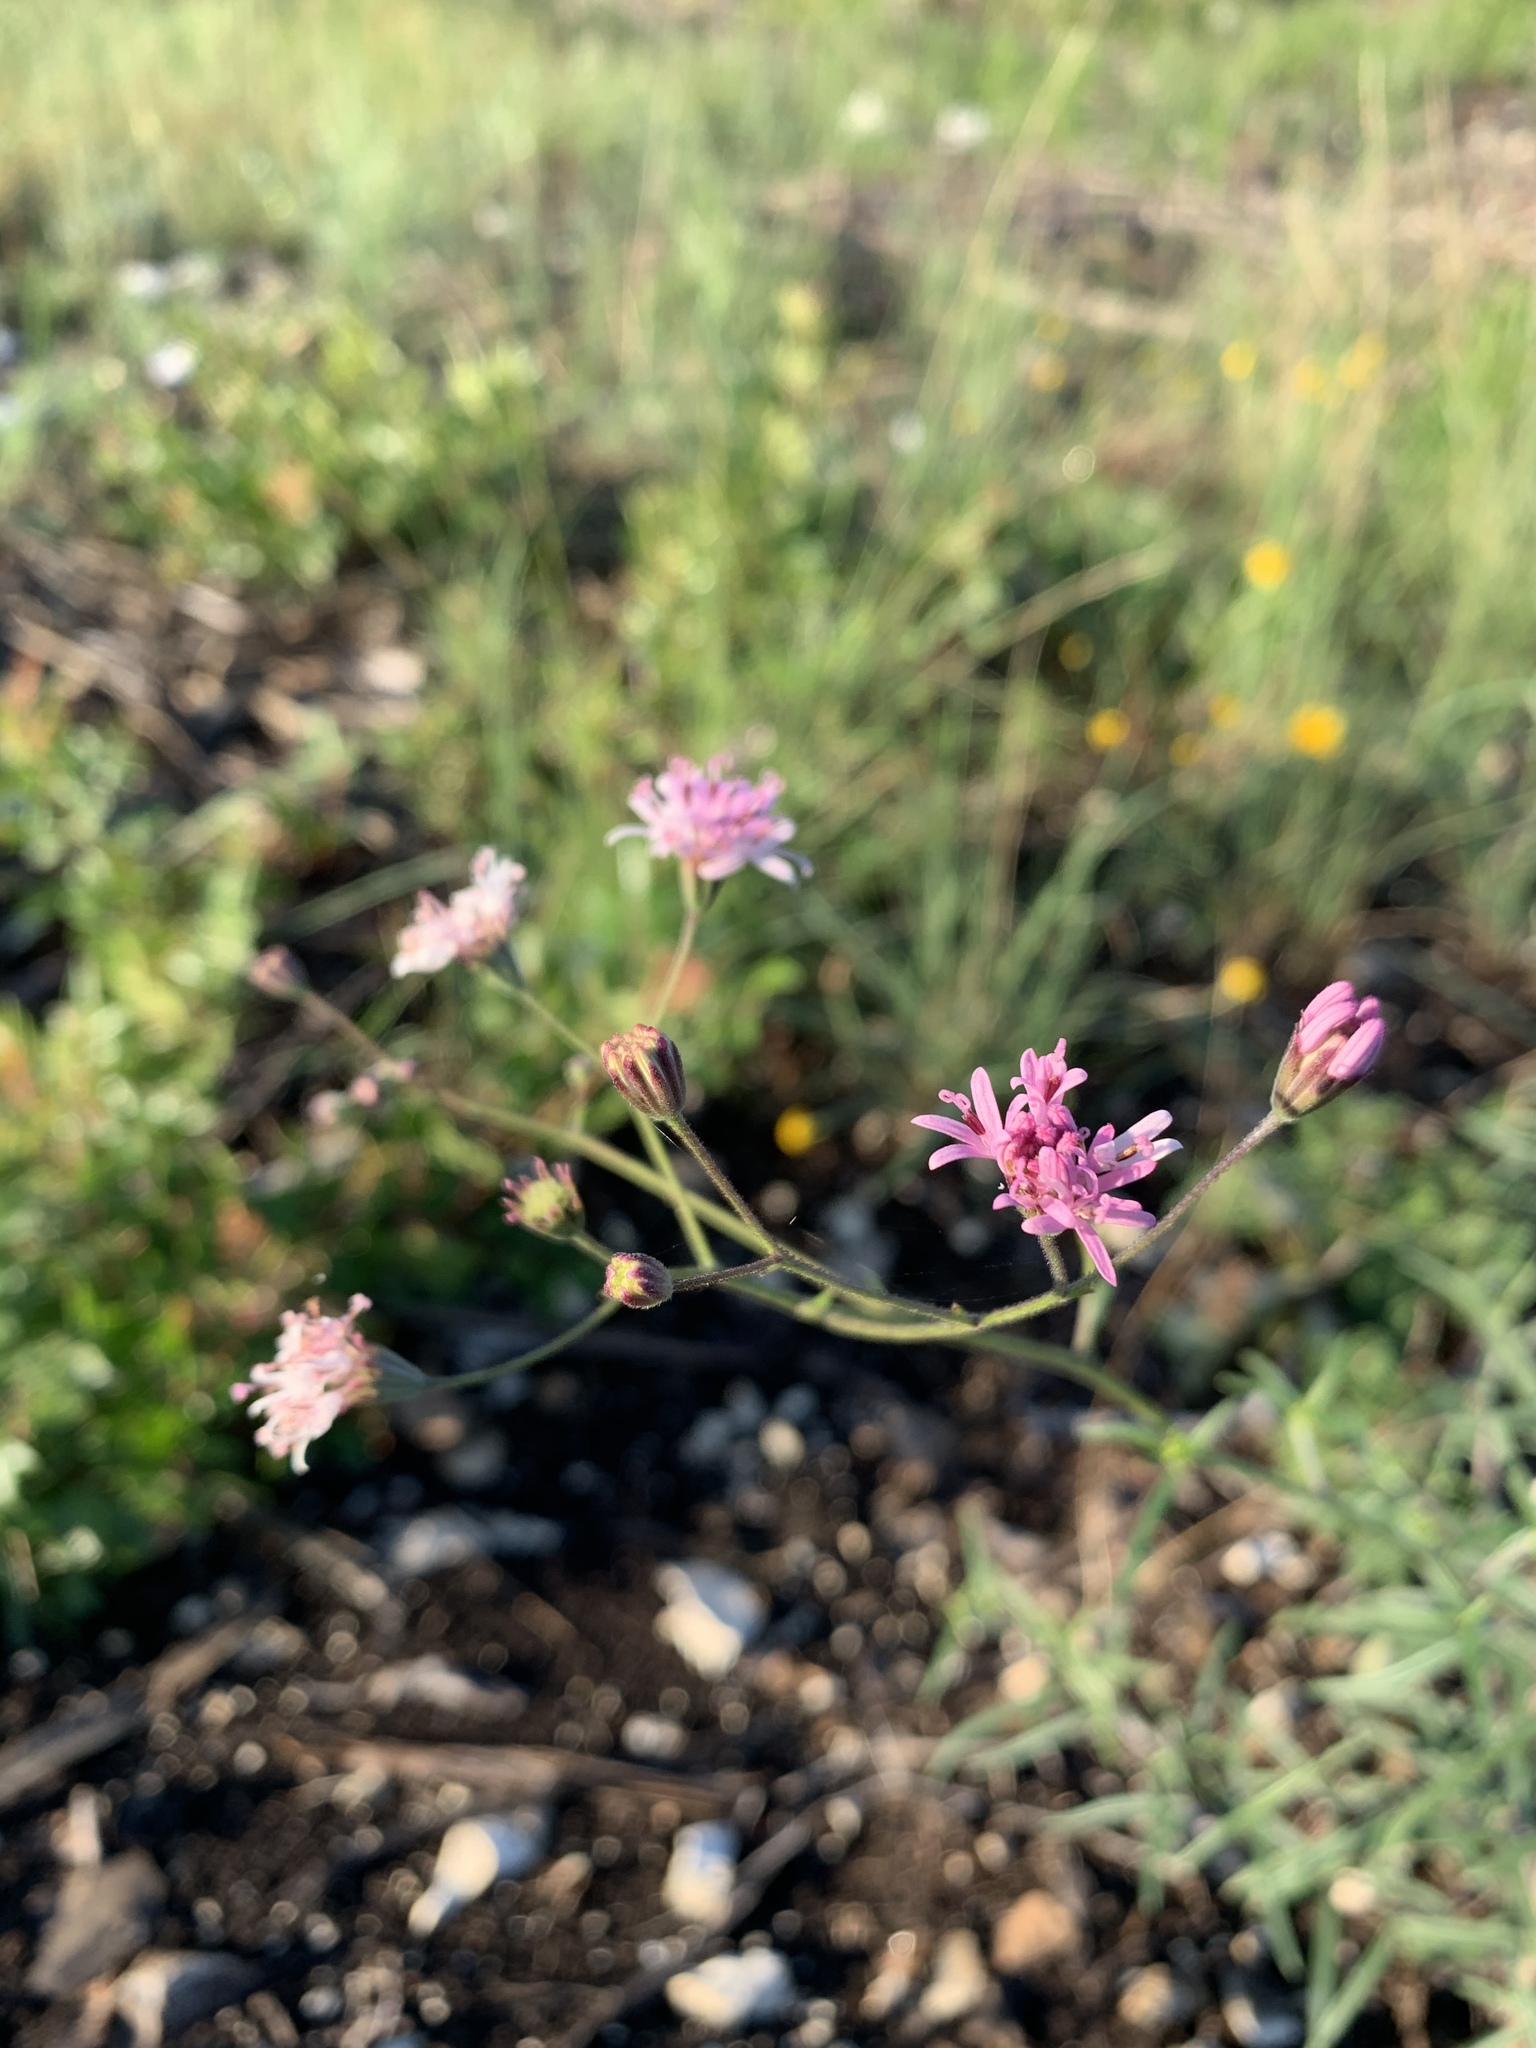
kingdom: Plantae
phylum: Tracheophyta
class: Magnoliopsida
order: Asterales
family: Asteraceae
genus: Palafoxia
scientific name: Palafoxia callosa
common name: Small palafox
